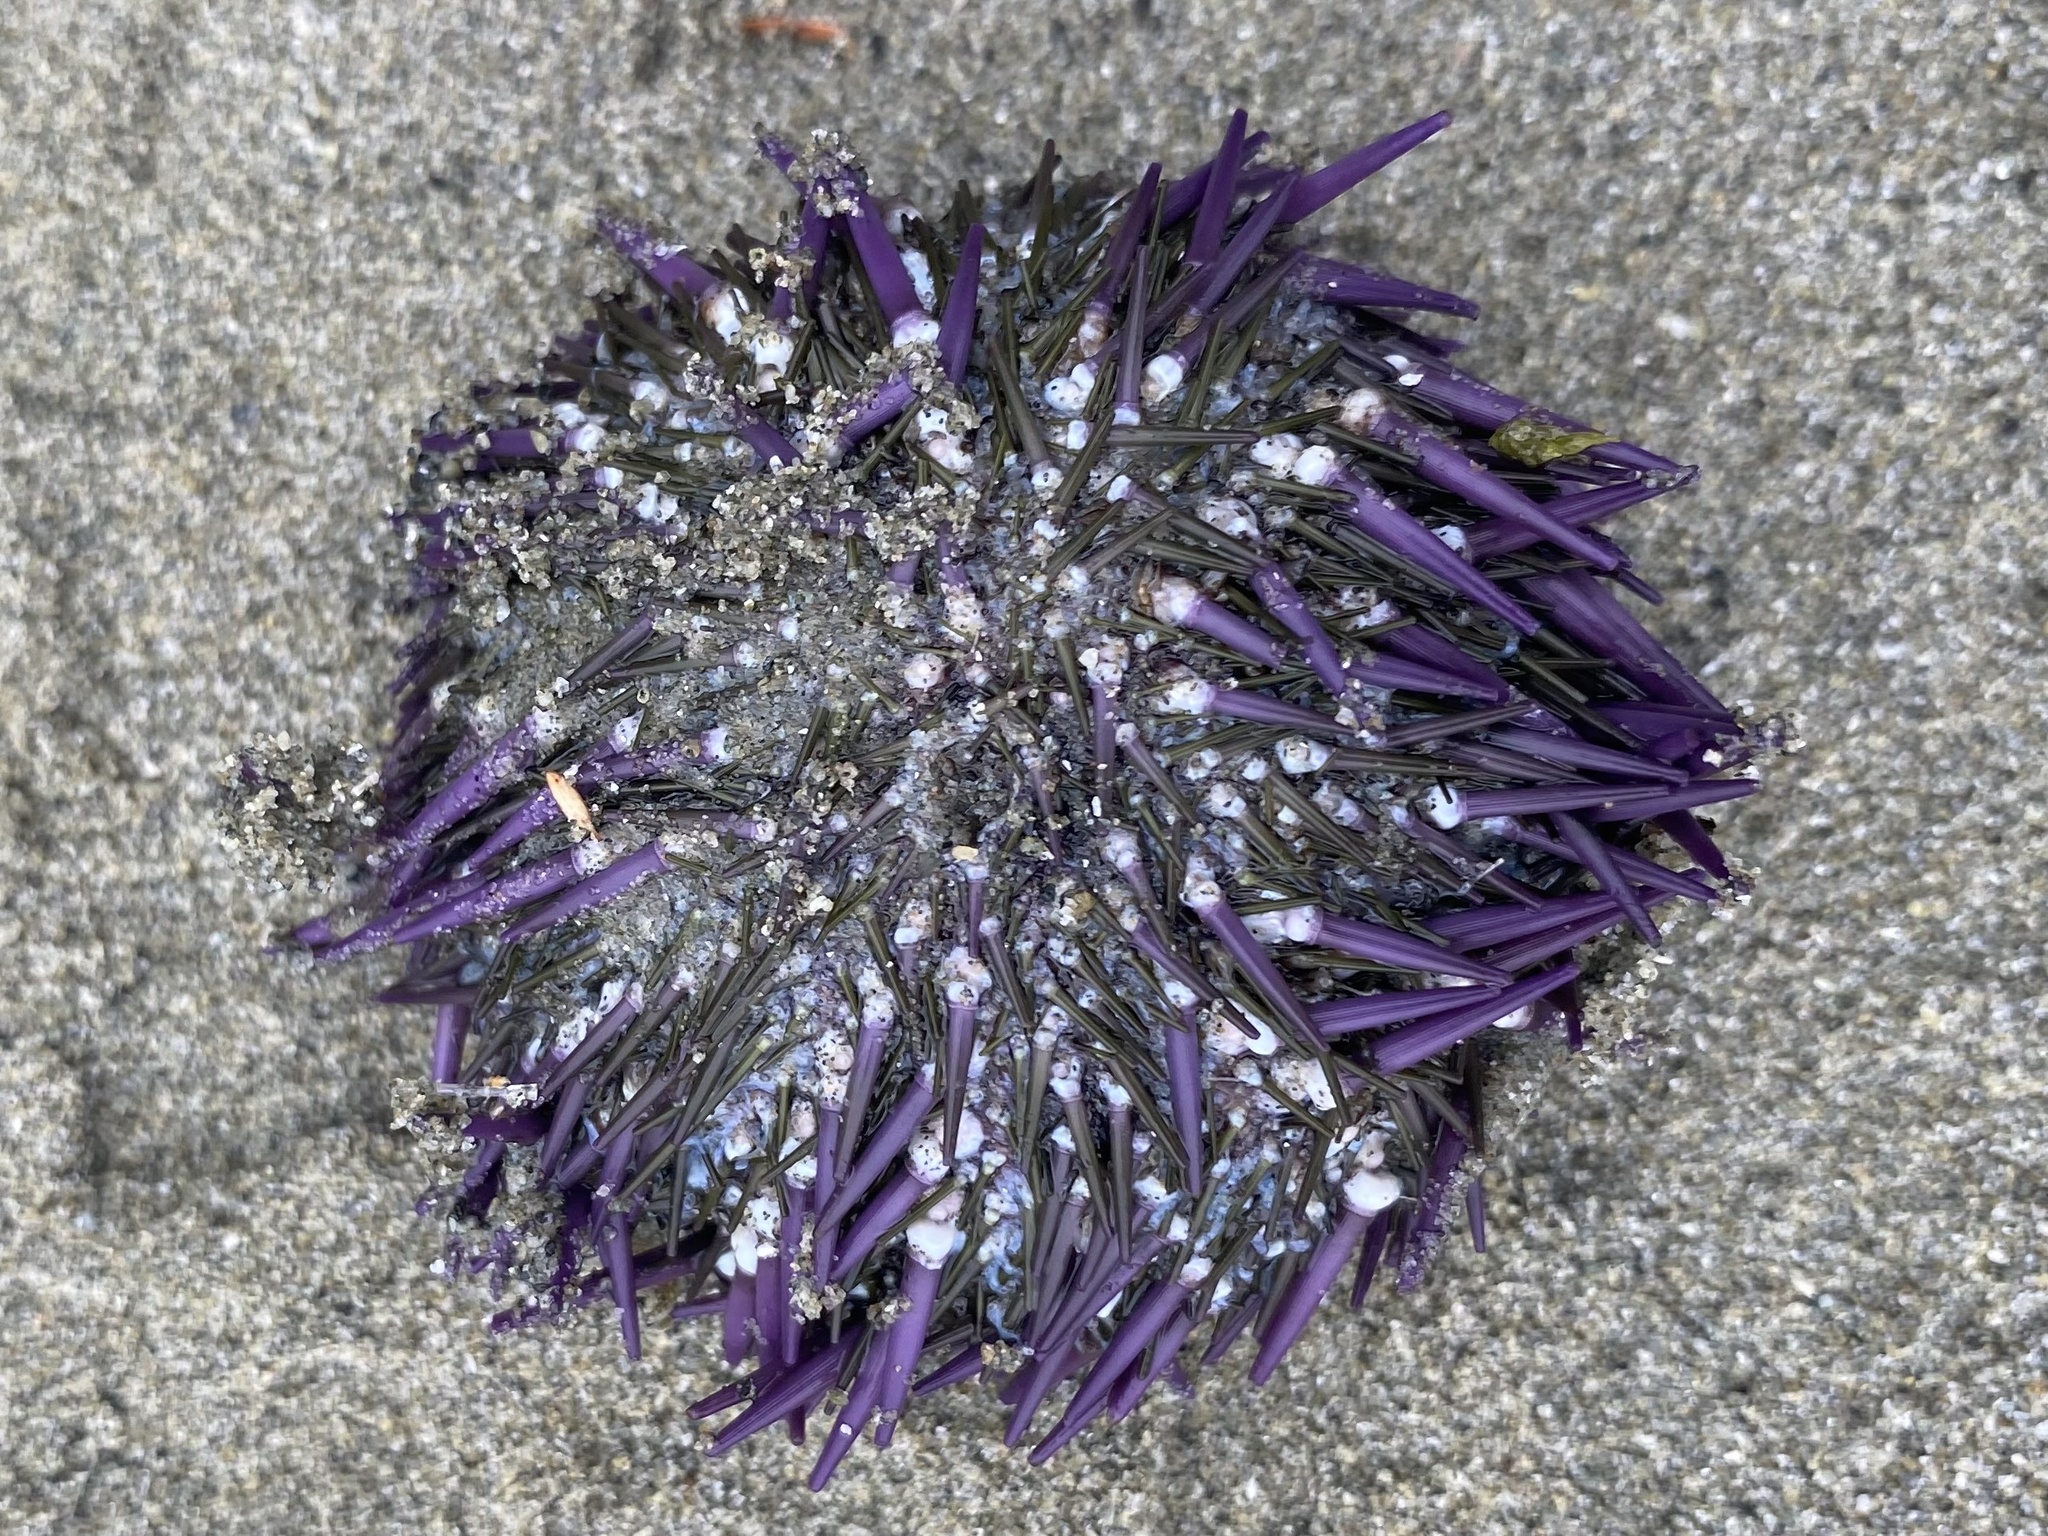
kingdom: Animalia
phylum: Echinodermata
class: Echinoidea
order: Camarodonta
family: Strongylocentrotidae
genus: Strongylocentrotus
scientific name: Strongylocentrotus purpuratus
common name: Purple sea urchin
